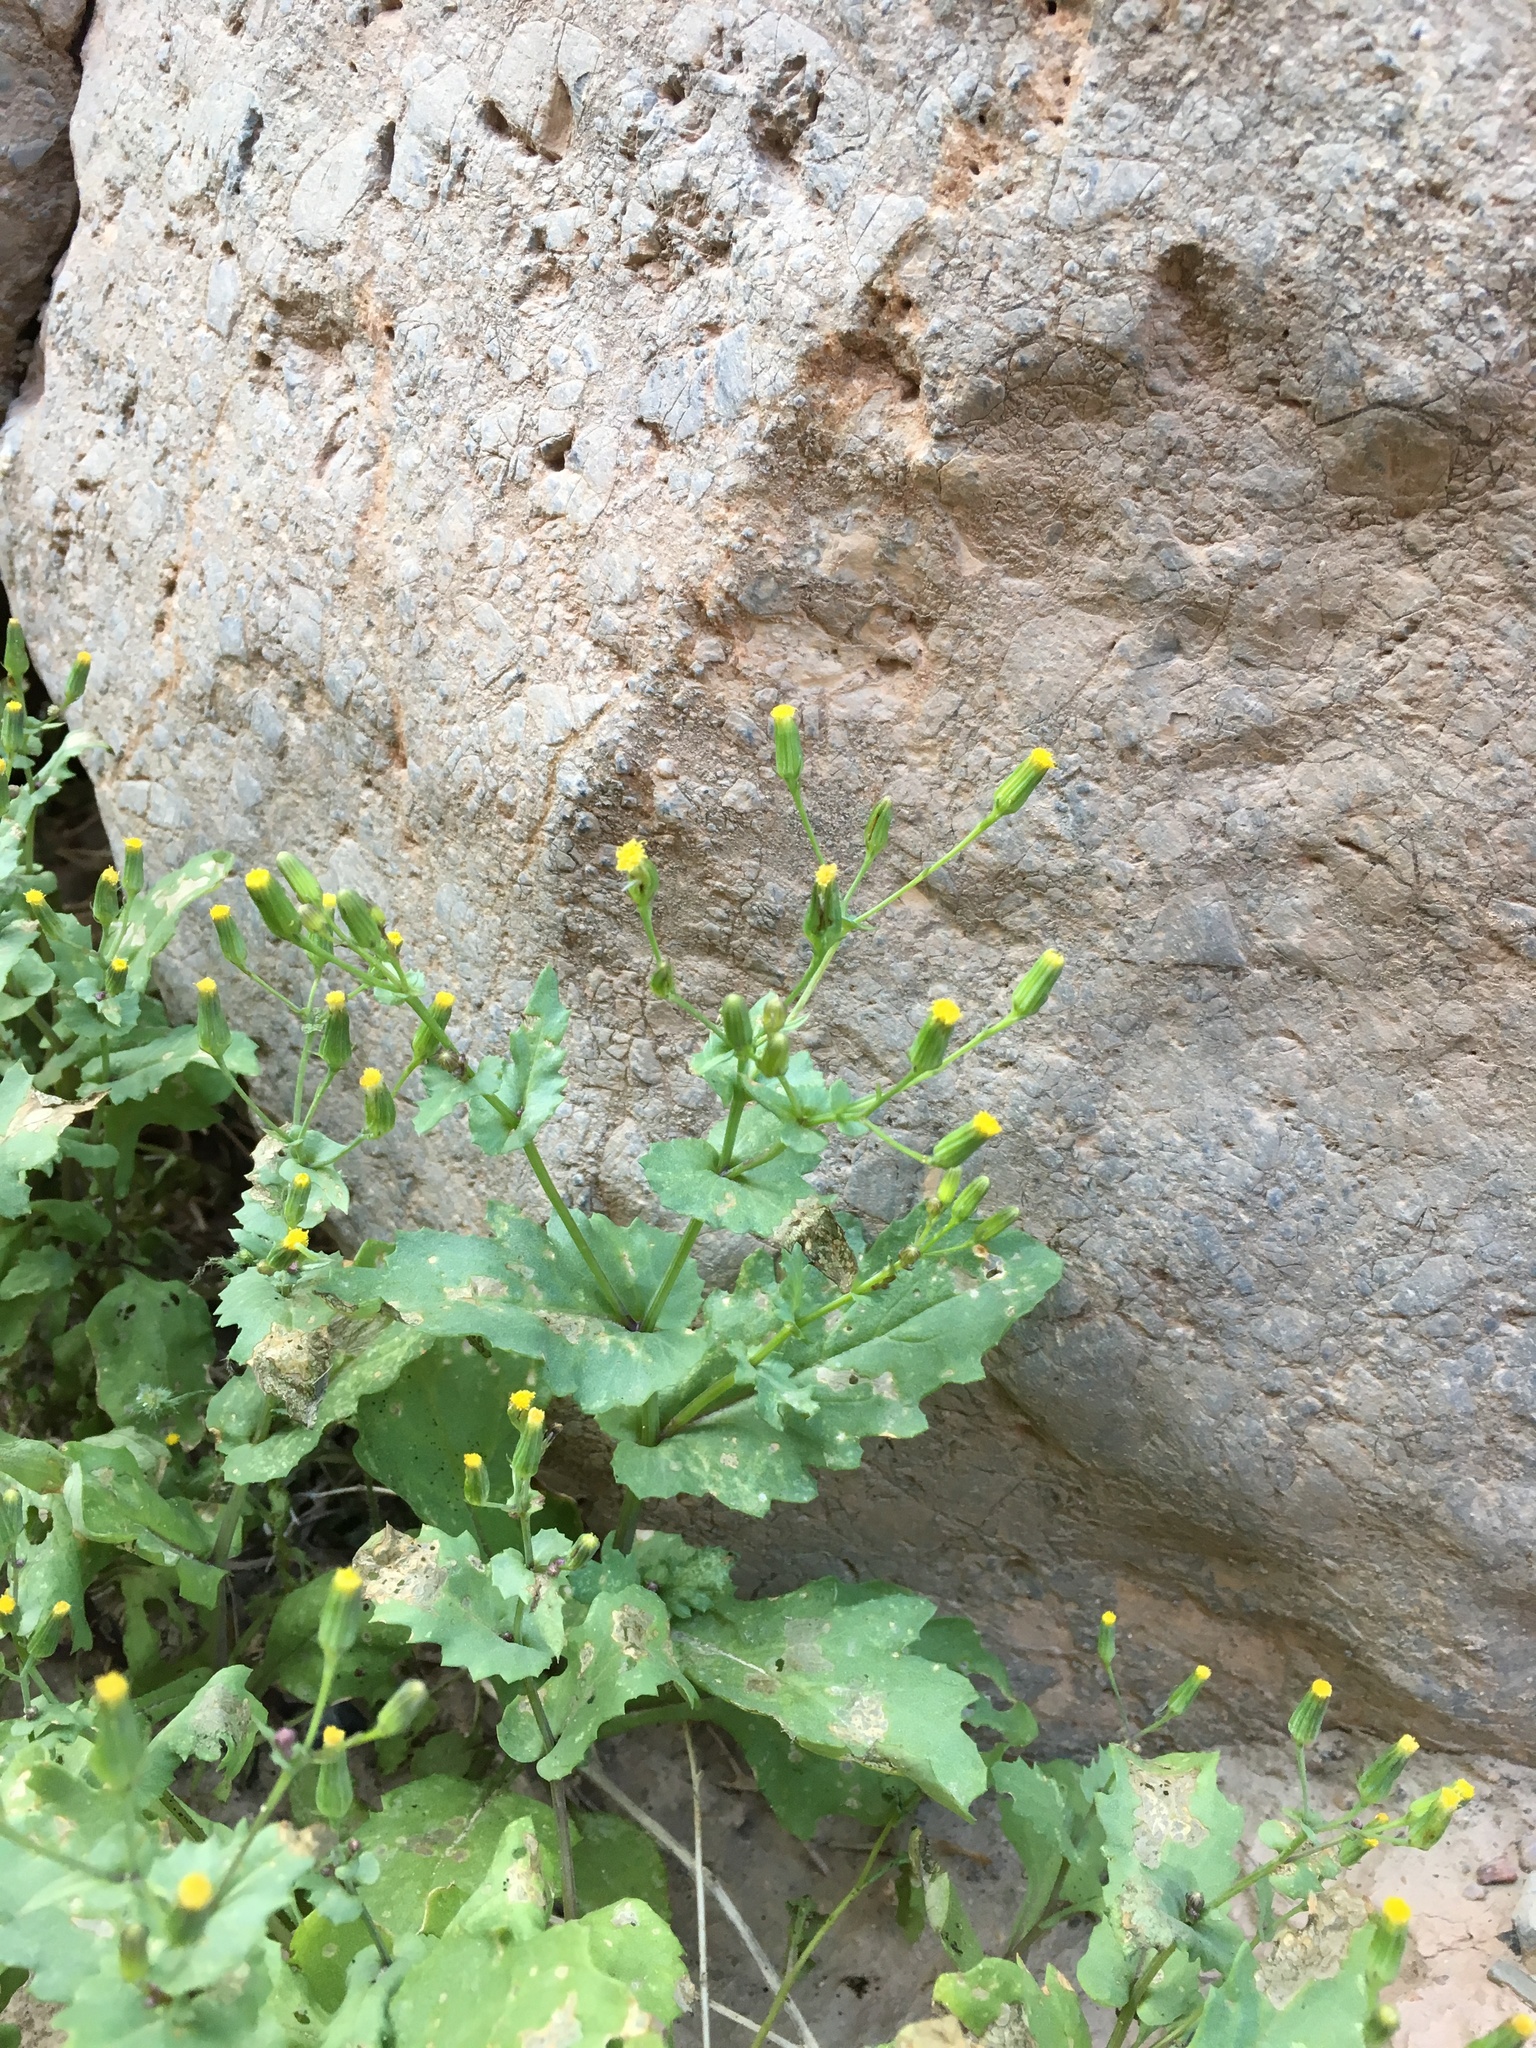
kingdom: Plantae
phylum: Tracheophyta
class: Magnoliopsida
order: Asterales
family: Asteraceae
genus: Senecio
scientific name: Senecio mohavensis
